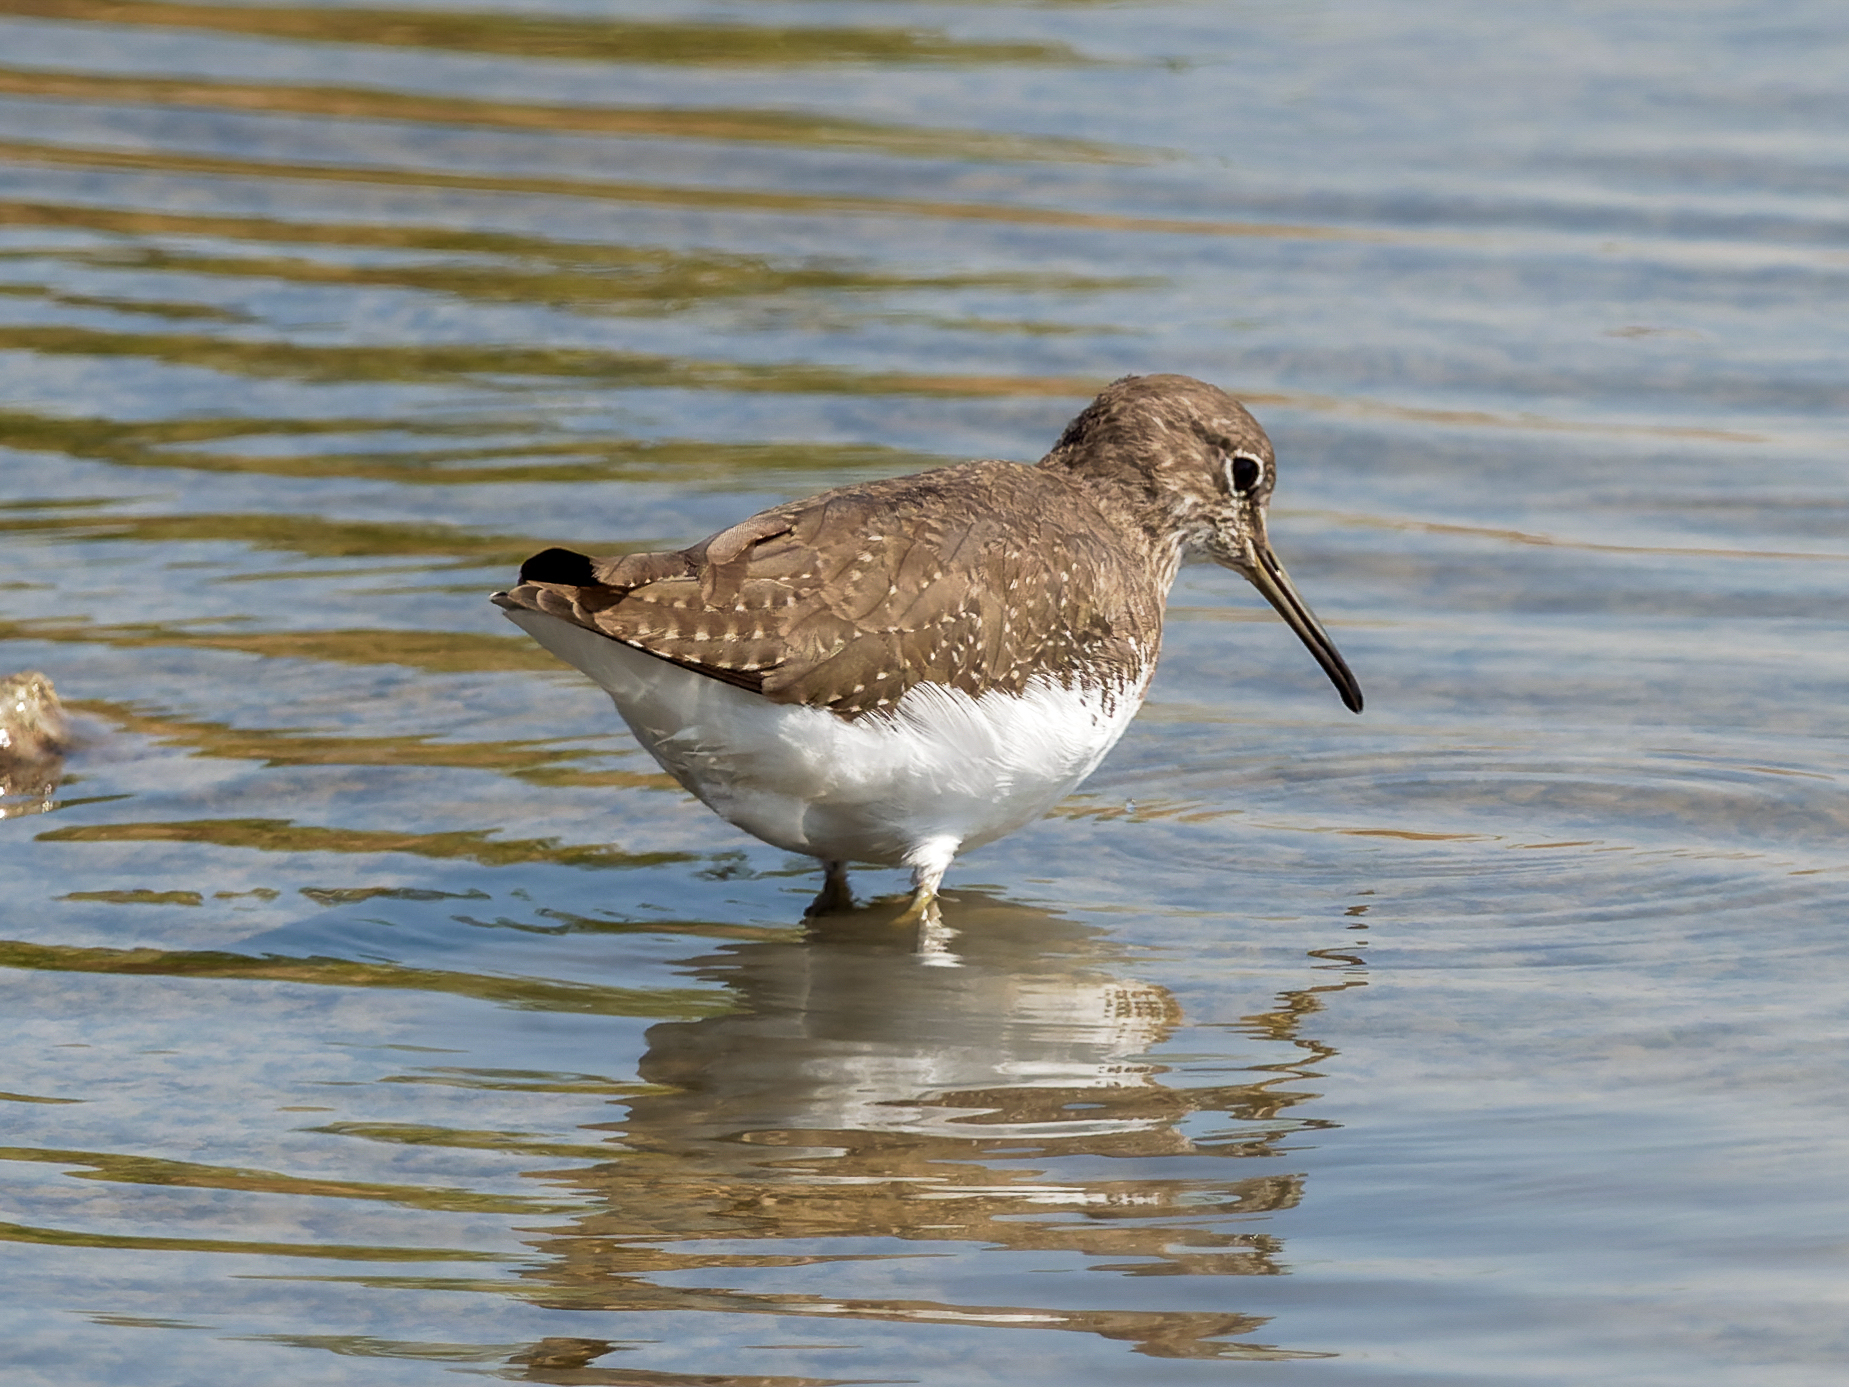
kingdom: Animalia
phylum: Chordata
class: Aves
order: Charadriiformes
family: Scolopacidae
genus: Tringa
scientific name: Tringa ochropus
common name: Green sandpiper
